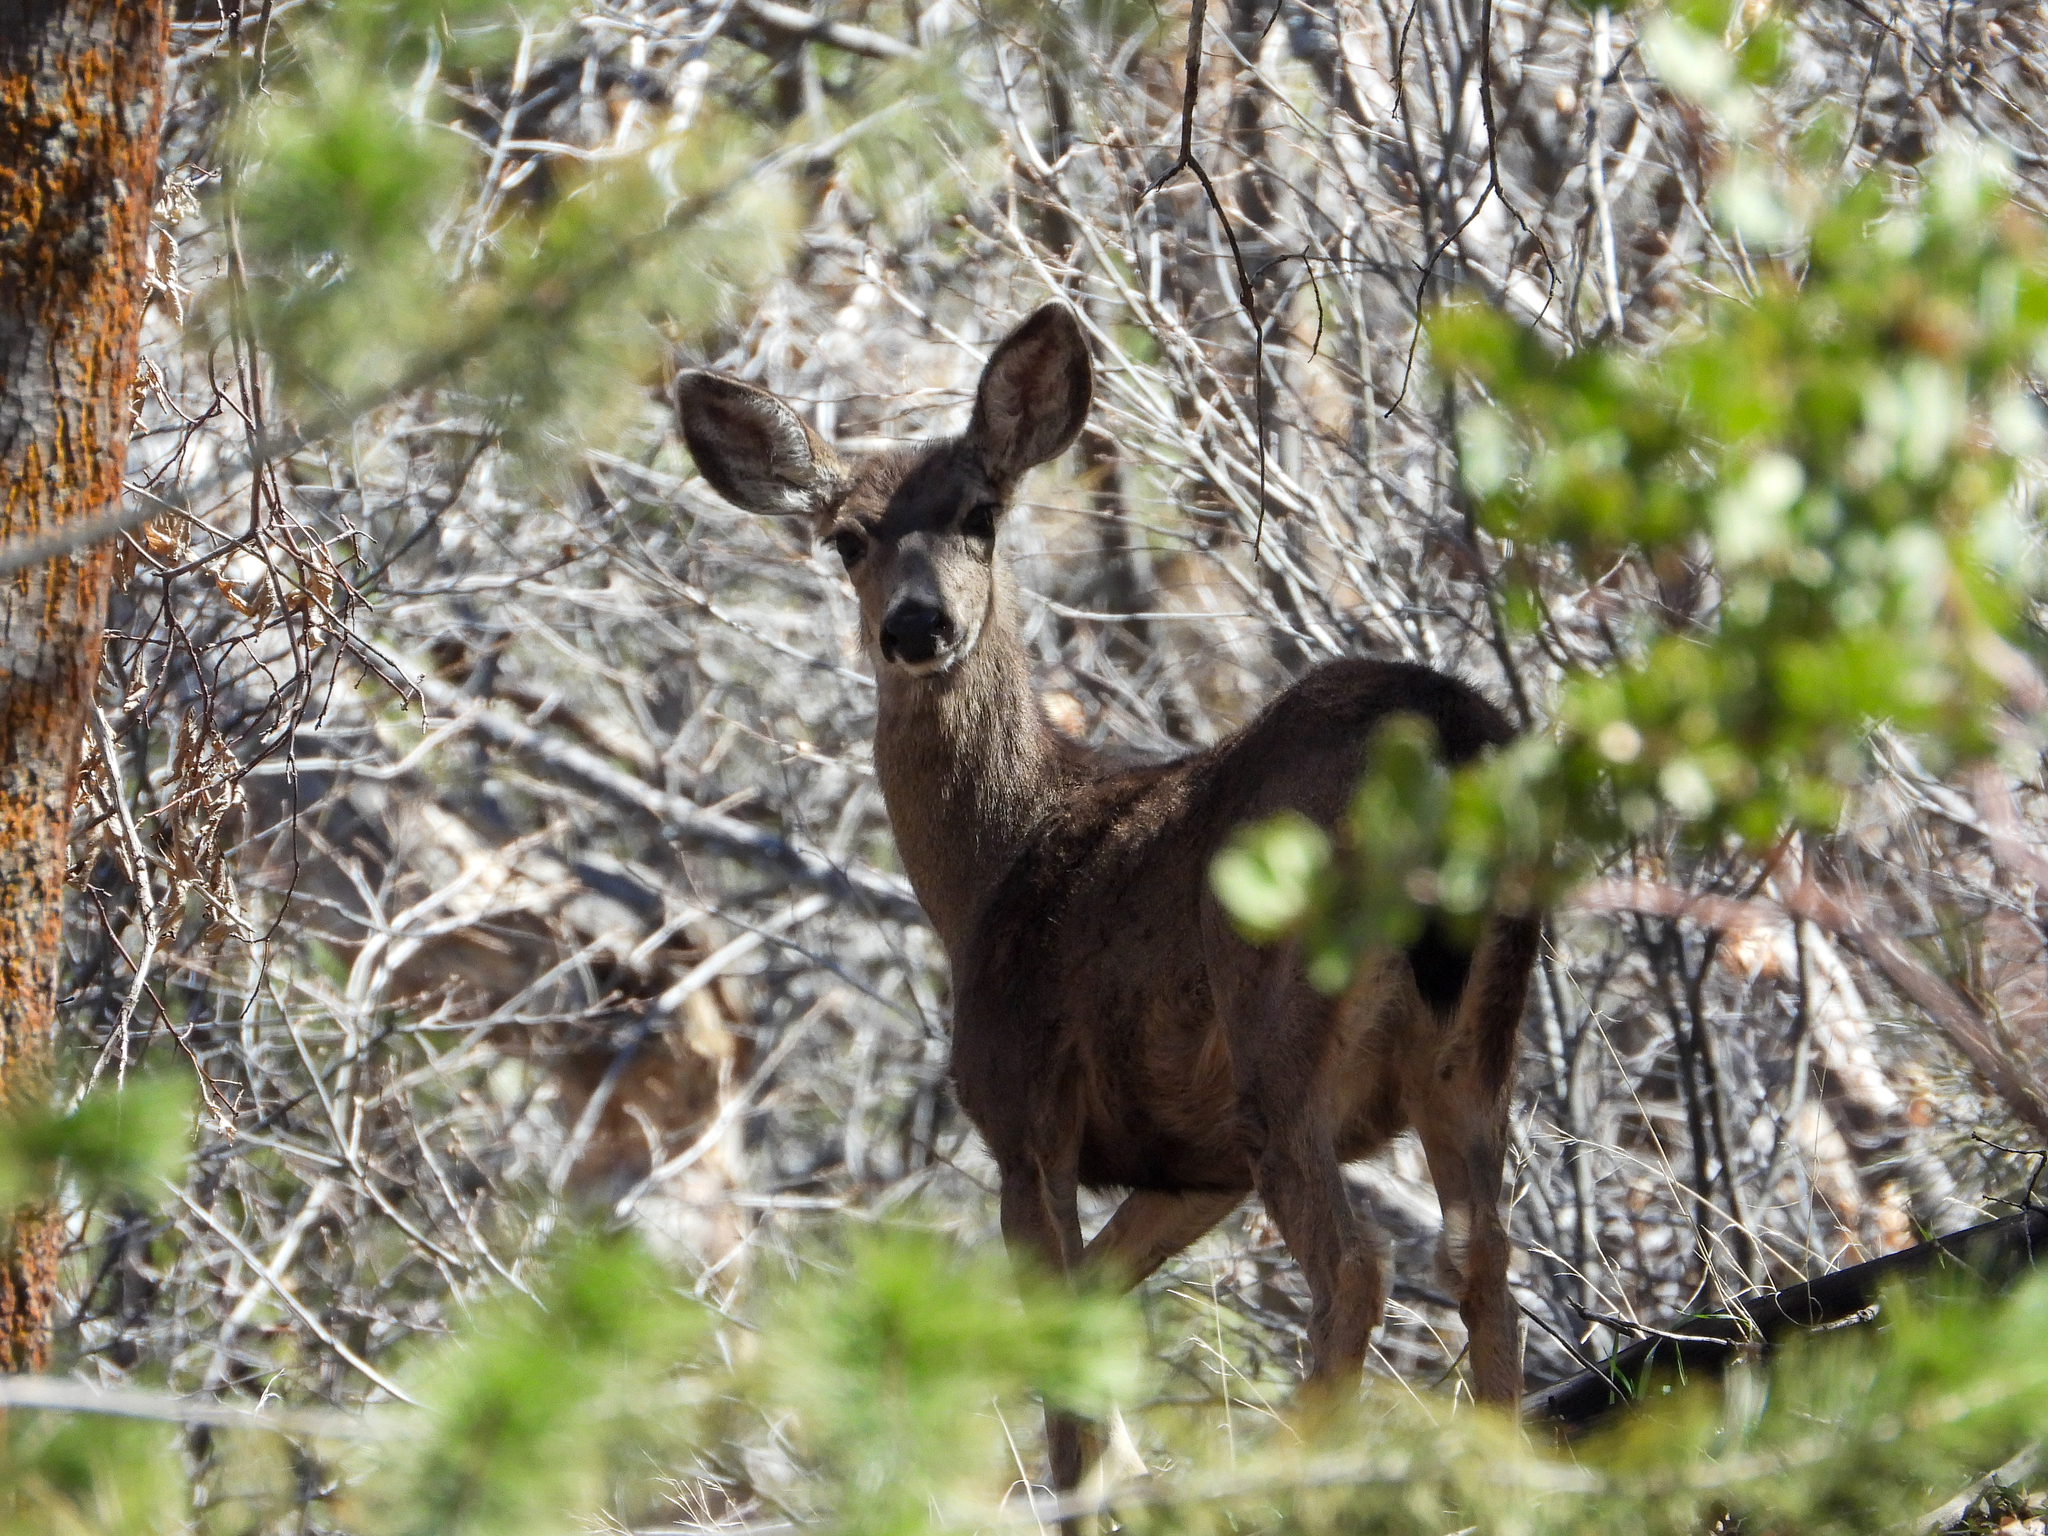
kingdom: Animalia
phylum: Chordata
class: Mammalia
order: Artiodactyla
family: Cervidae
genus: Odocoileus
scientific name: Odocoileus hemionus
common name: Mule deer
